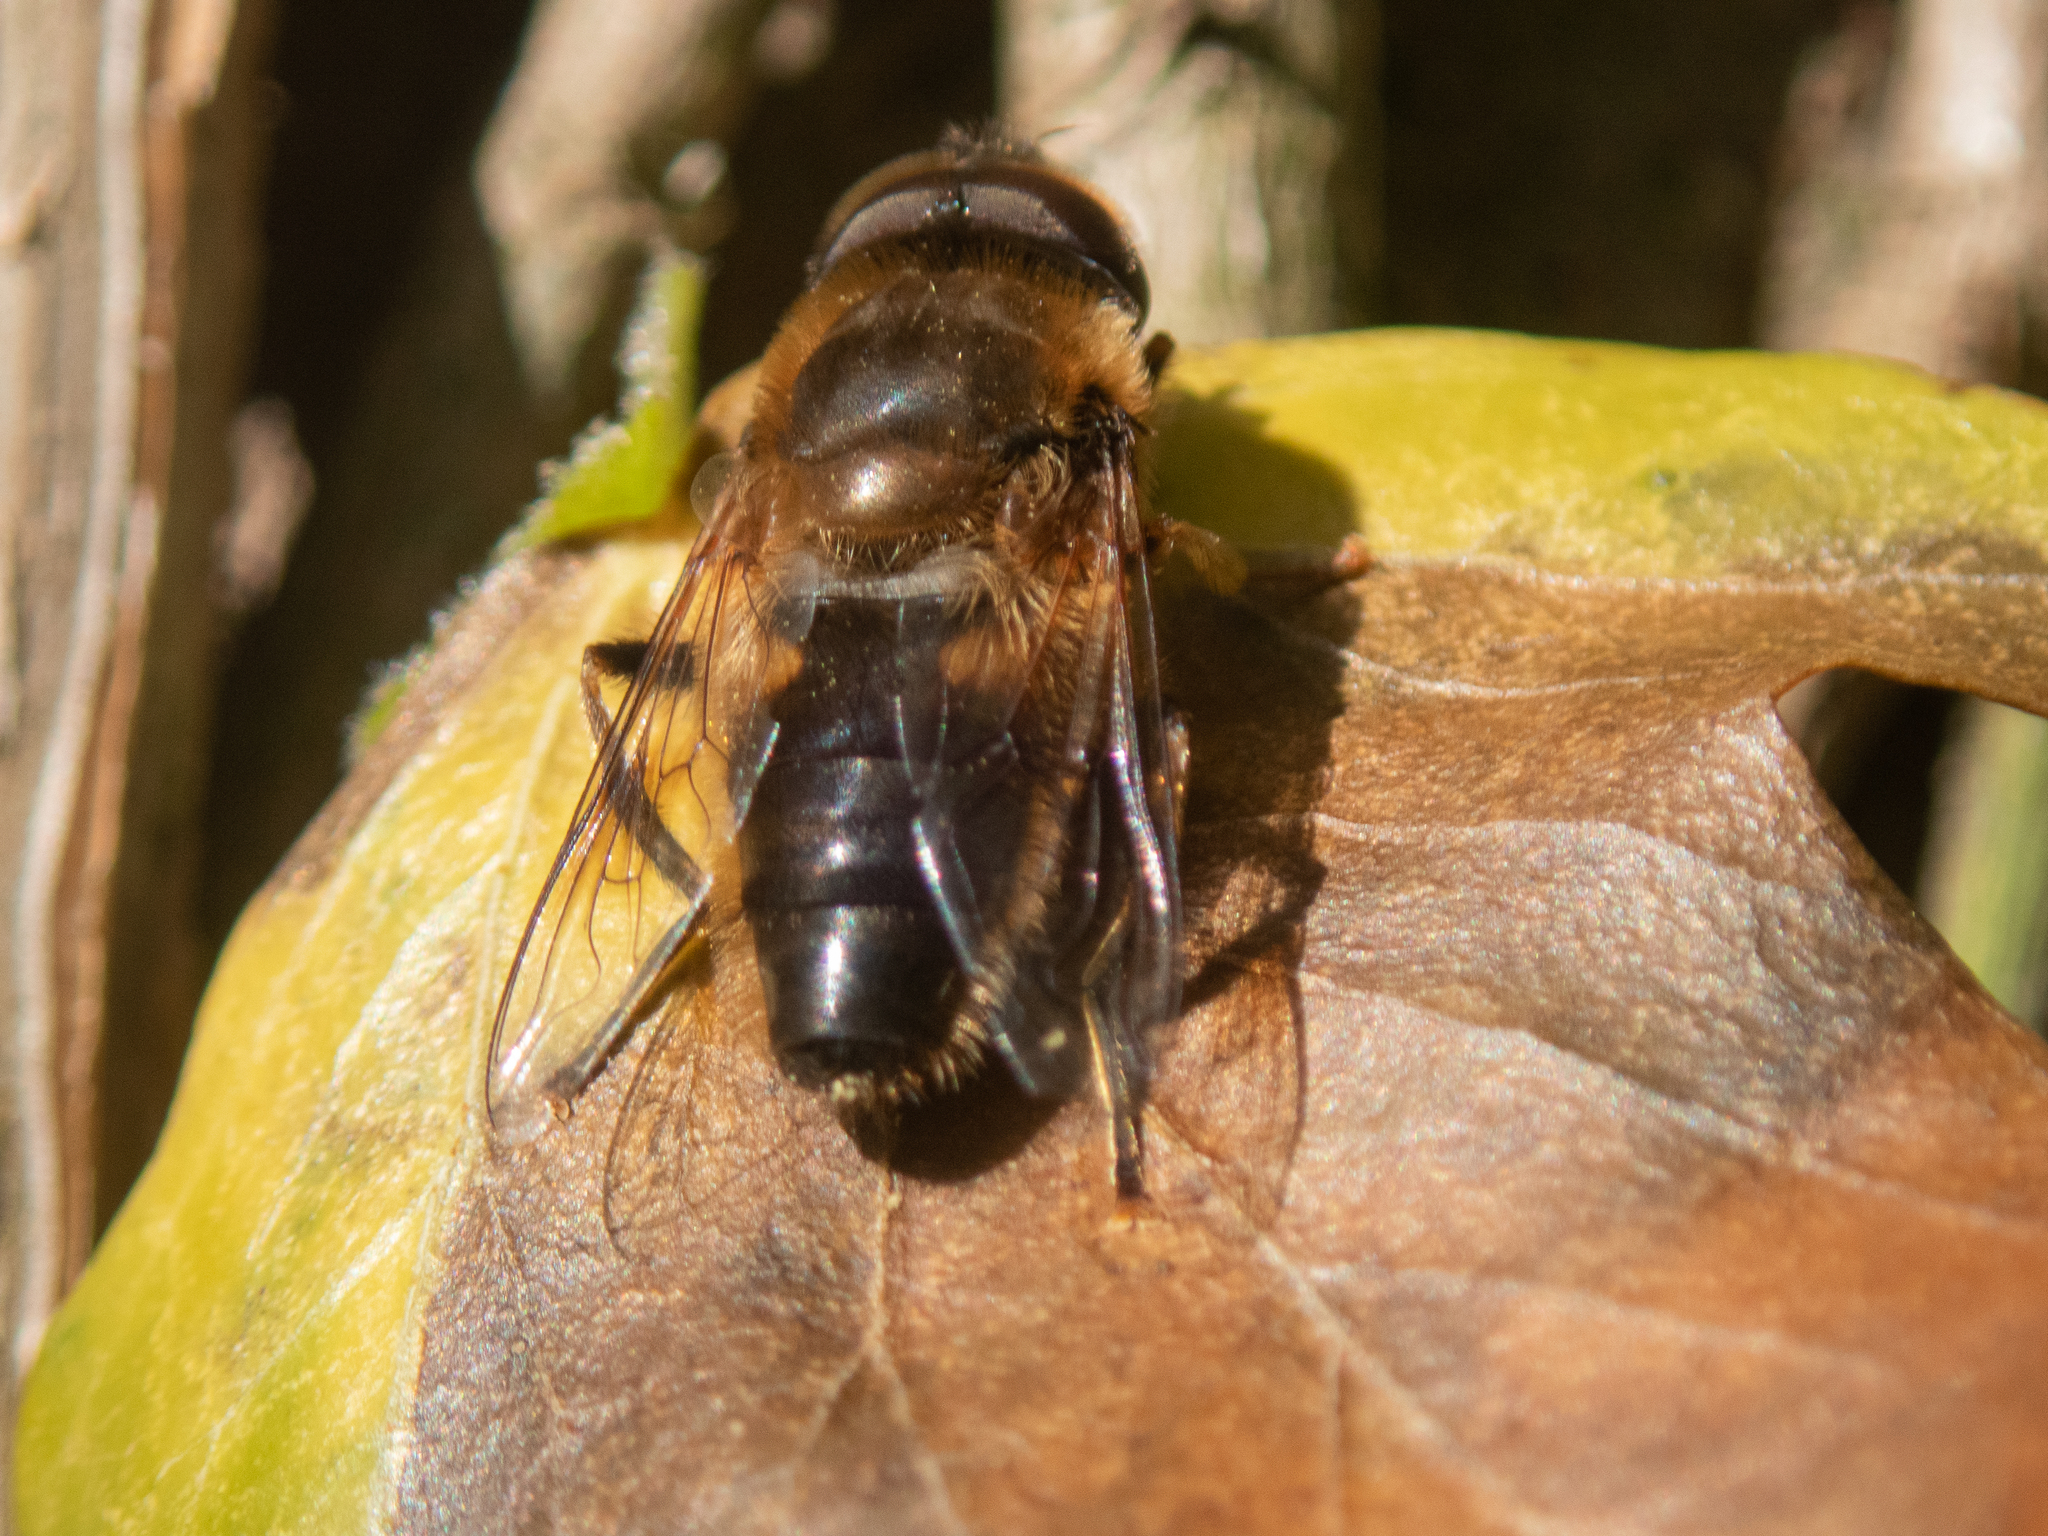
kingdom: Animalia
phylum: Arthropoda
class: Insecta
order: Diptera
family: Syrphidae
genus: Eristalis
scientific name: Eristalis pertinax
